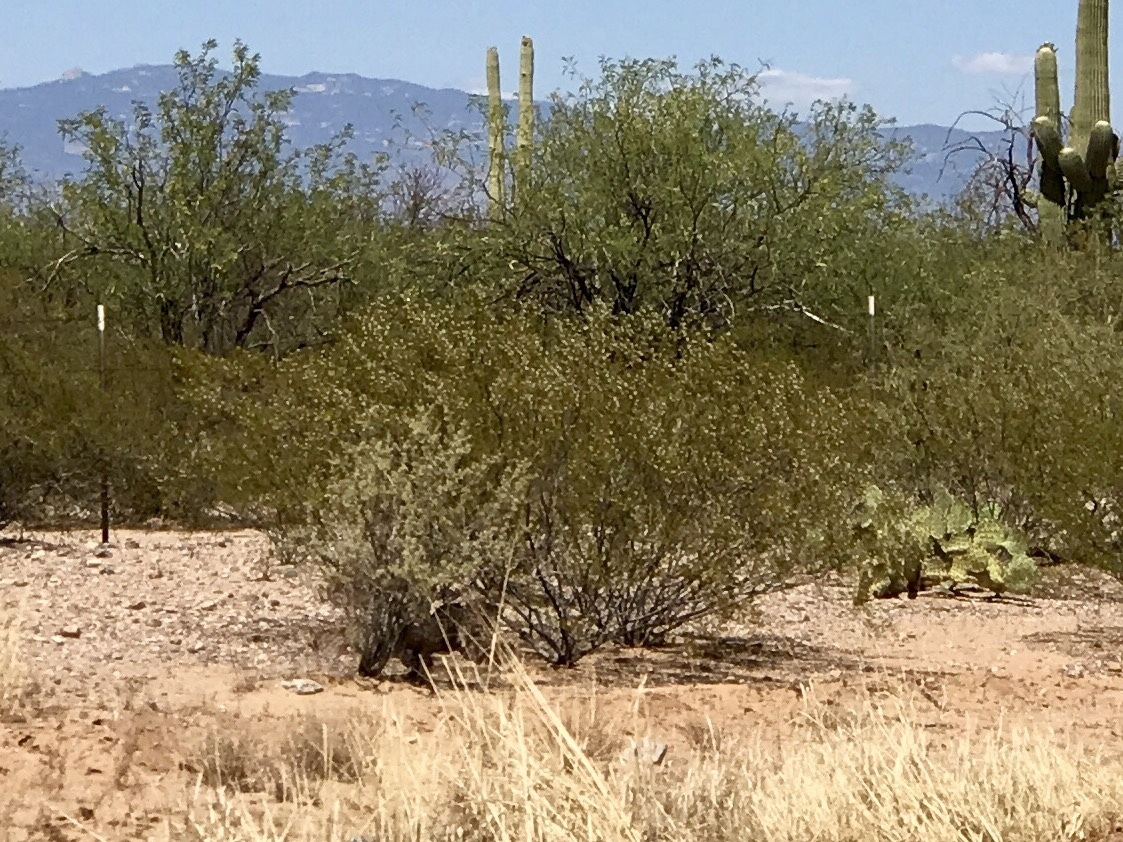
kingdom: Plantae
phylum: Tracheophyta
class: Magnoliopsida
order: Zygophyllales
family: Zygophyllaceae
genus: Larrea
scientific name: Larrea tridentata
